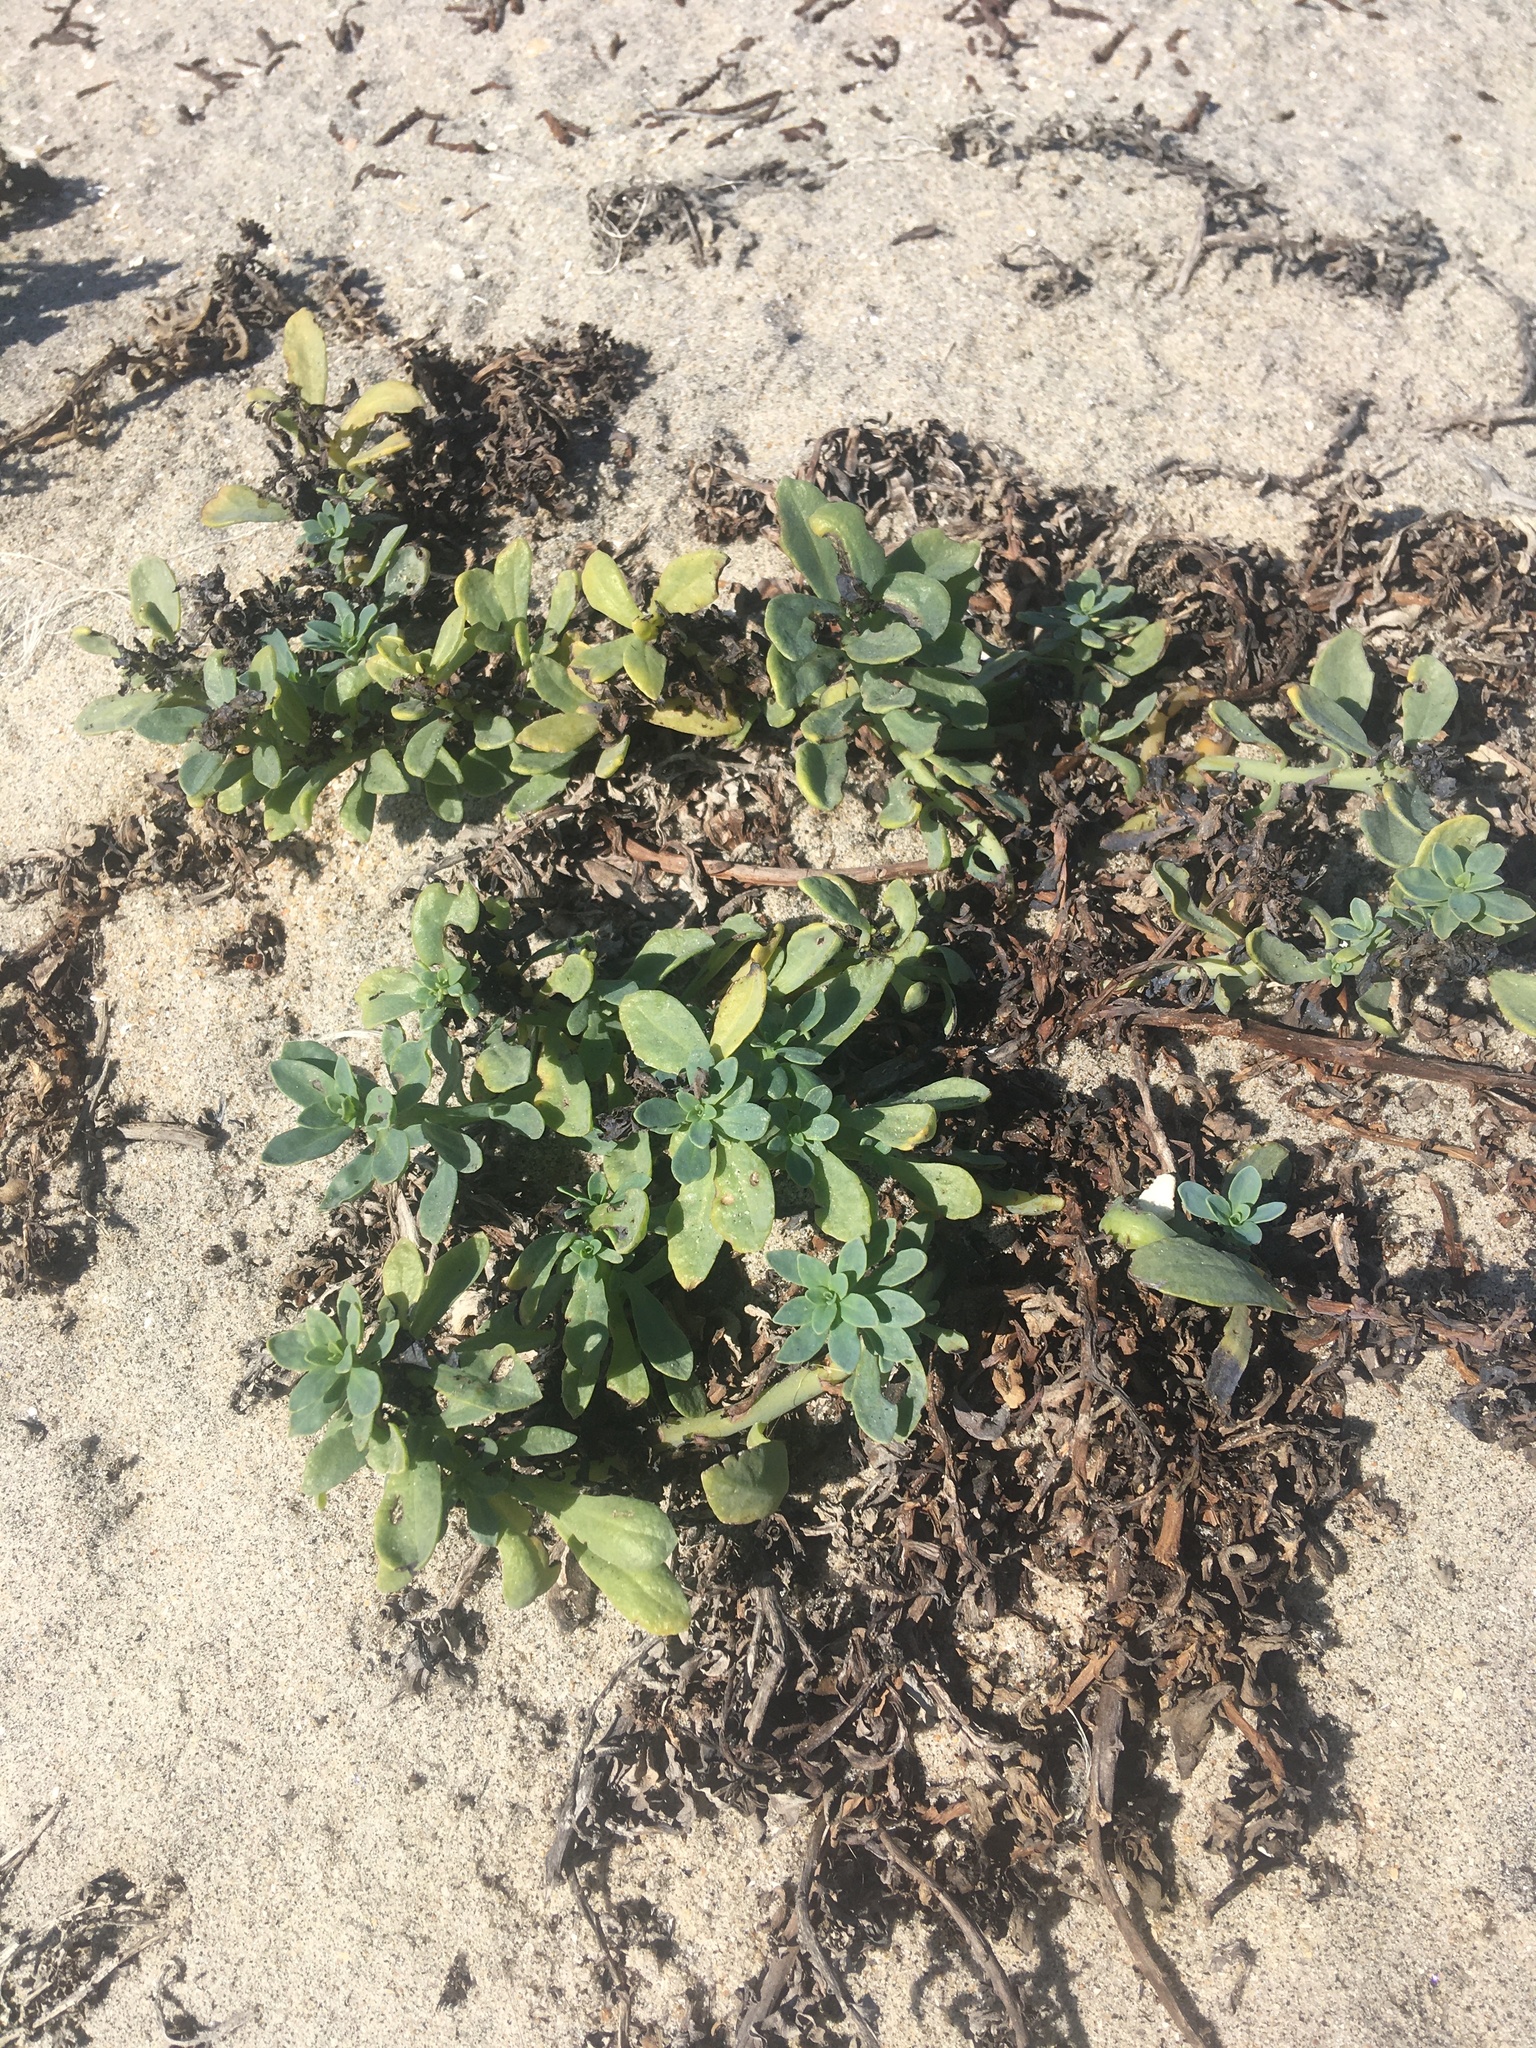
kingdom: Plantae
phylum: Tracheophyta
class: Magnoliopsida
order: Boraginales
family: Heliotropiaceae
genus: Heliotropium
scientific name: Heliotropium curassavicum
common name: Seaside heliotrope
